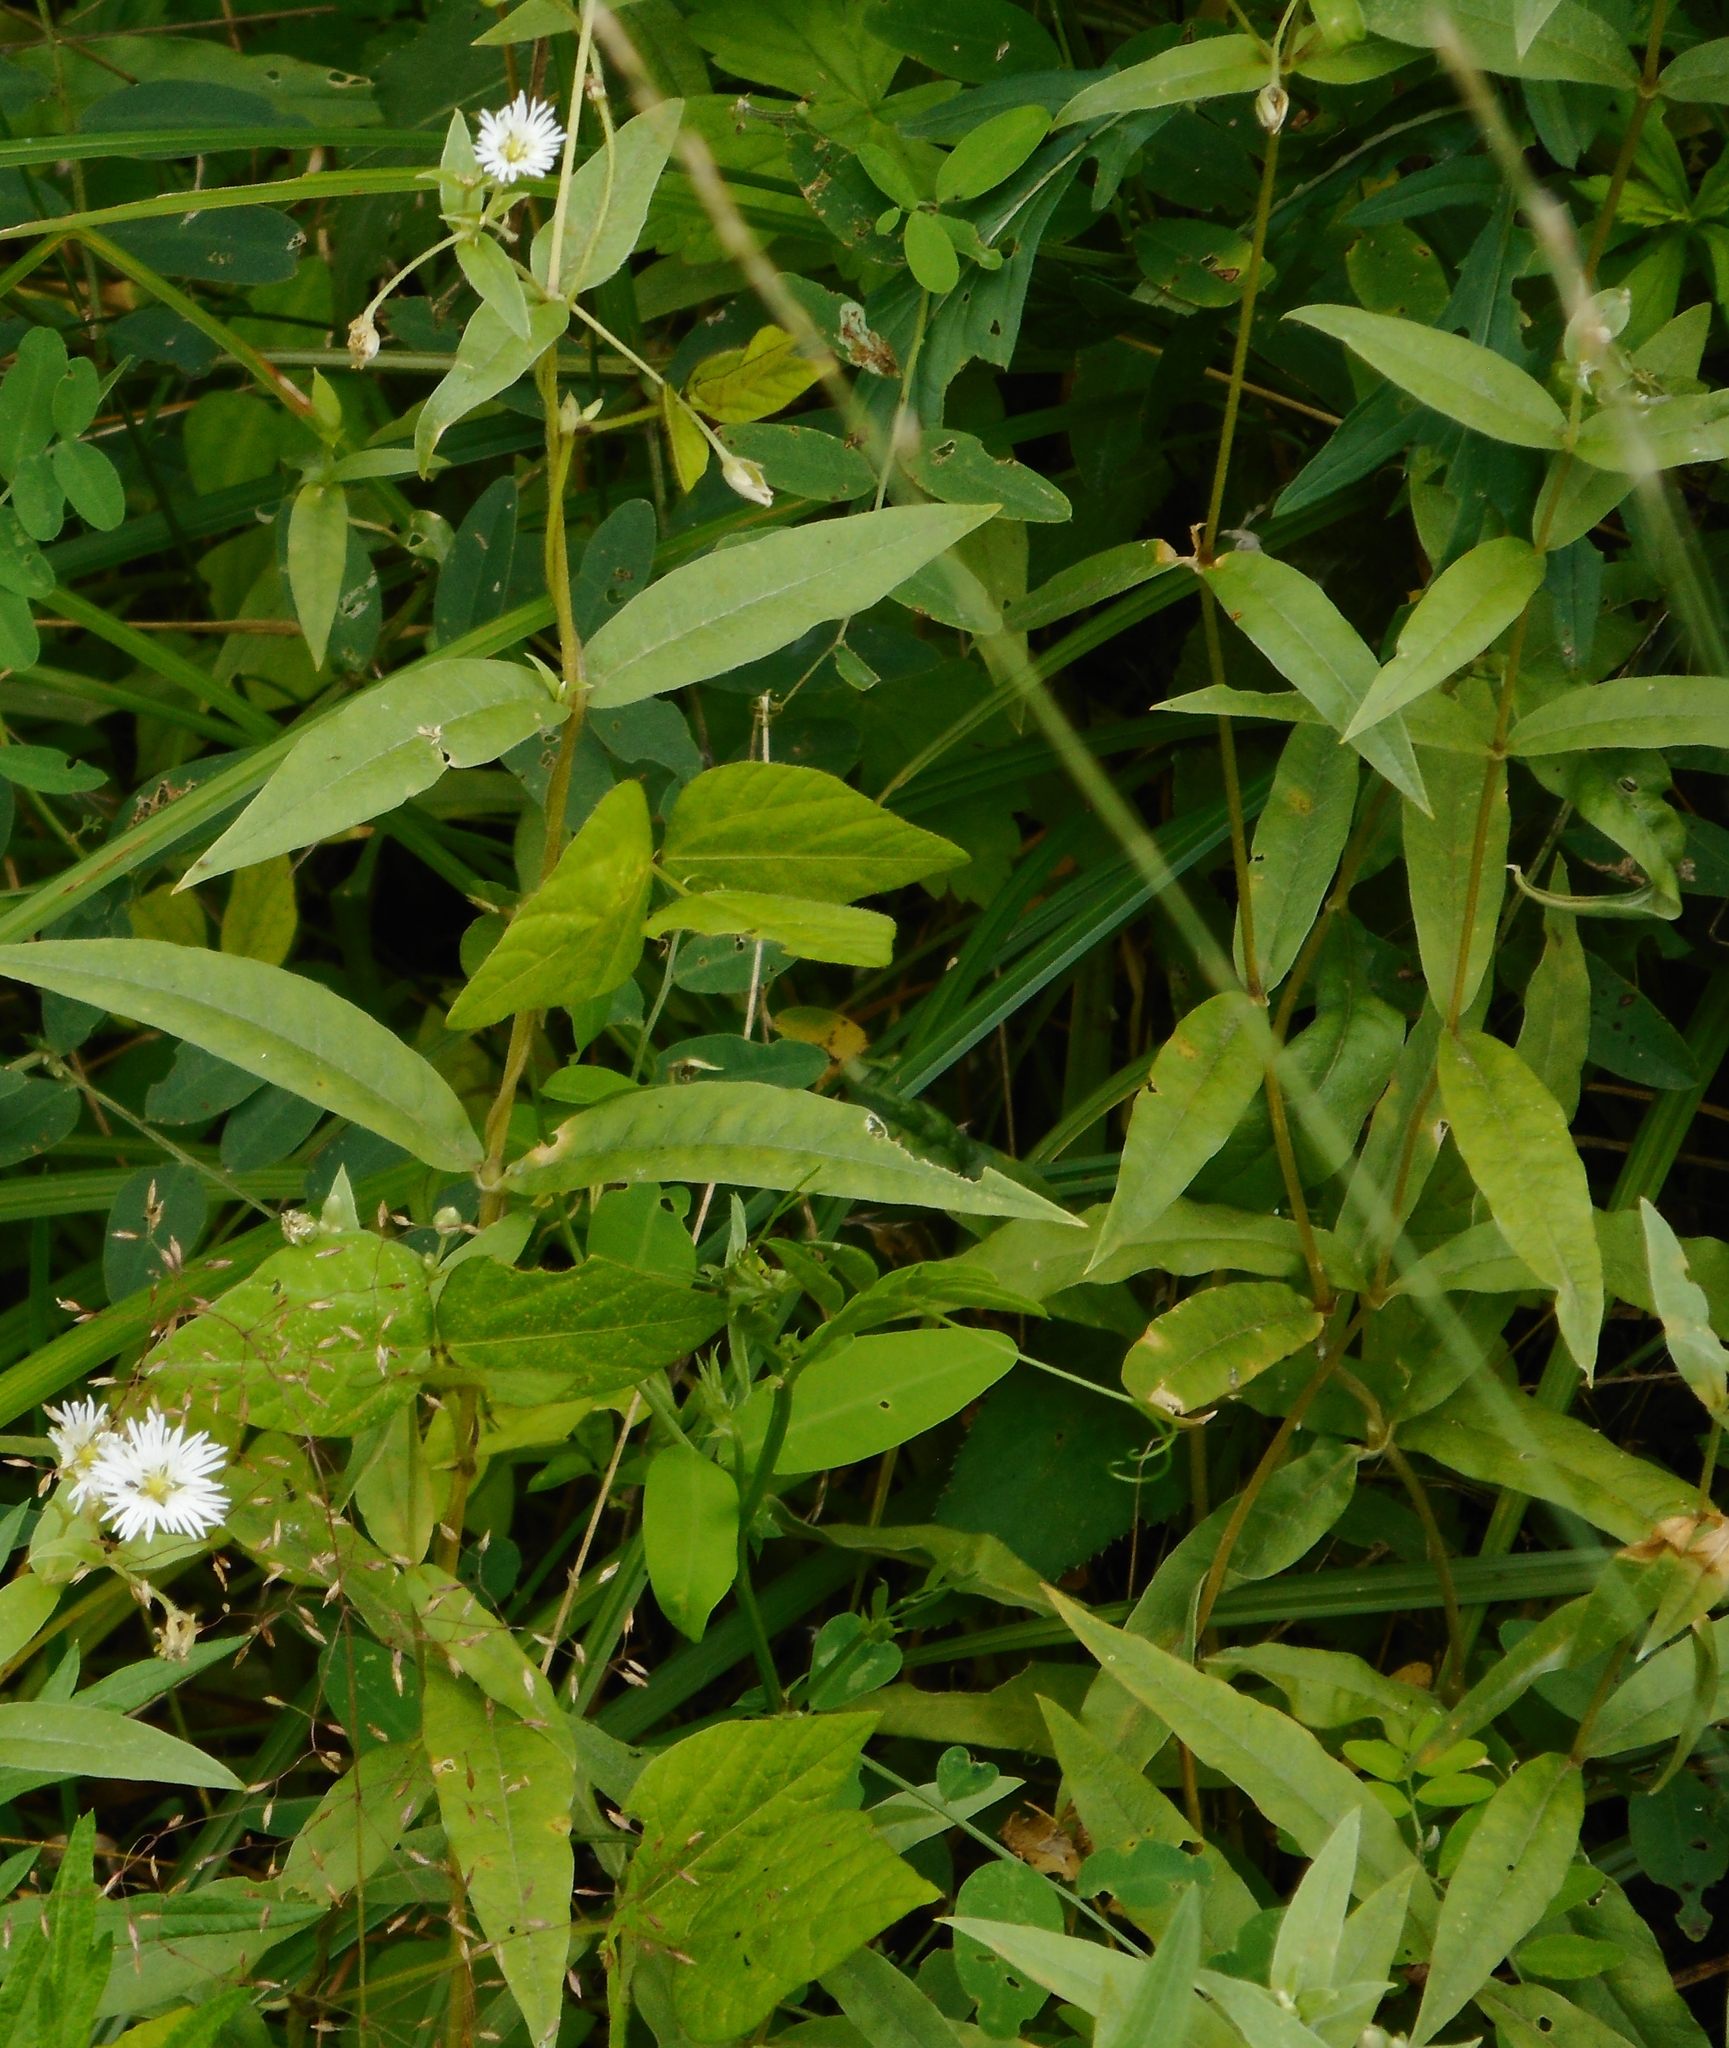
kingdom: Plantae
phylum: Tracheophyta
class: Magnoliopsida
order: Caryophyllales
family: Caryophyllaceae
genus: Stellaria
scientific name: Stellaria radians
